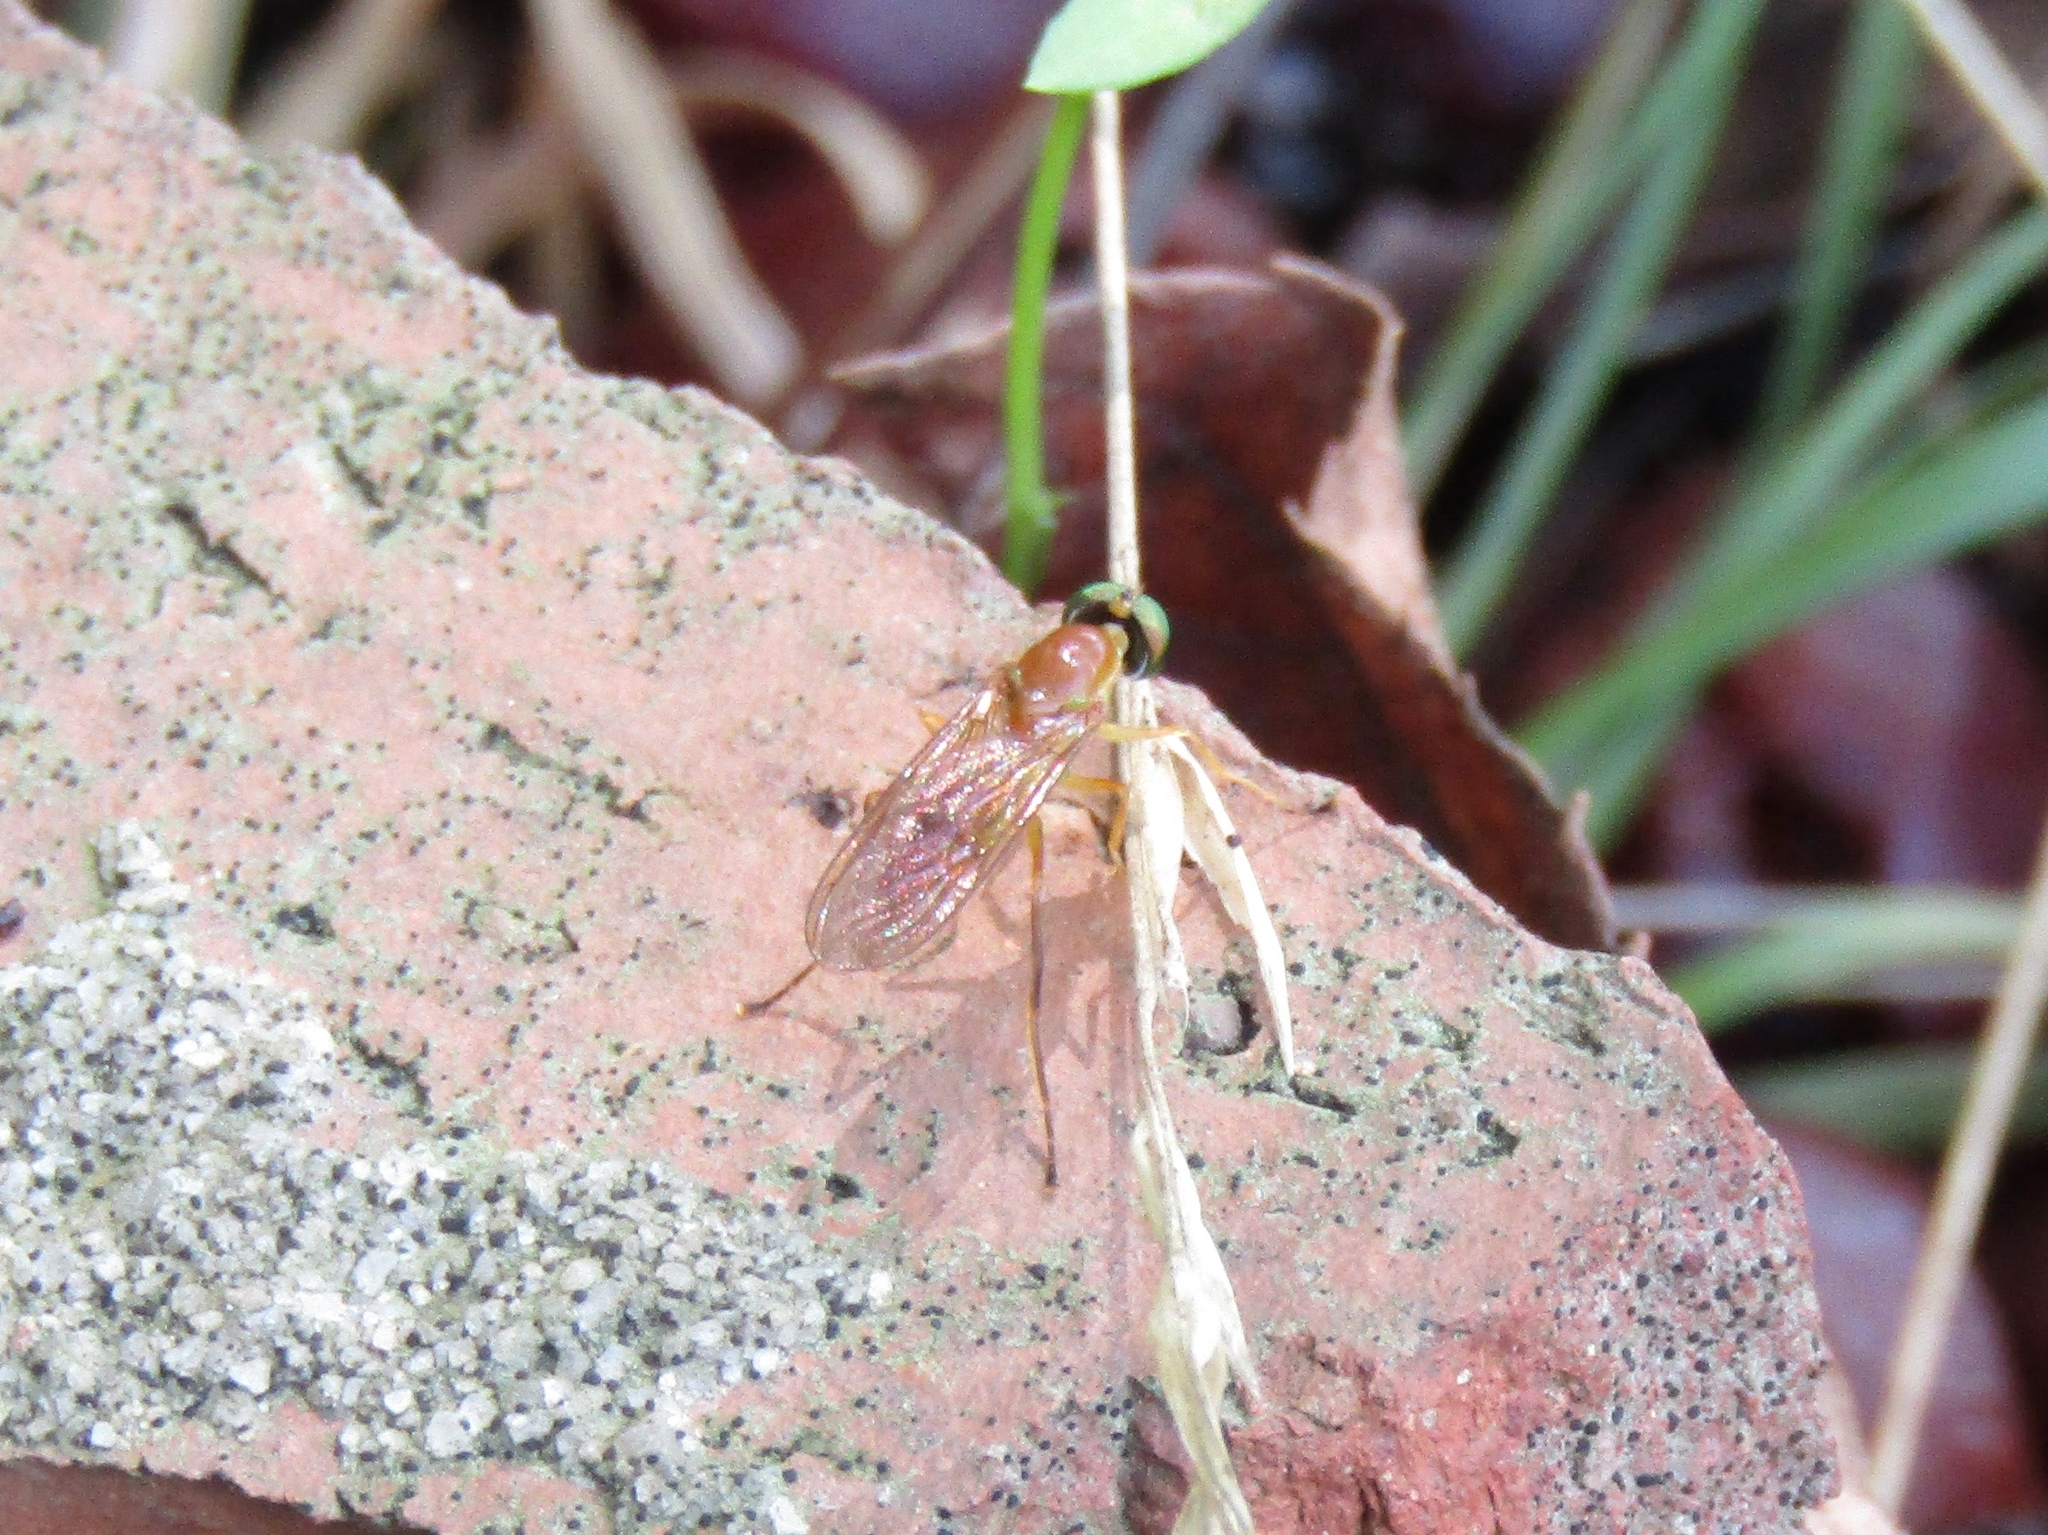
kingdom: Animalia
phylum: Arthropoda
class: Insecta
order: Diptera
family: Stratiomyidae
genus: Ptecticus
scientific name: Ptecticus trivittatus
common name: Compost fly
